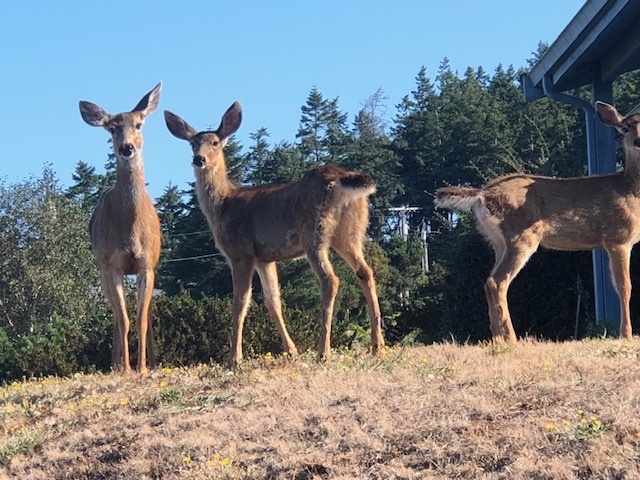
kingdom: Animalia
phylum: Chordata
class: Mammalia
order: Artiodactyla
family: Cervidae
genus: Odocoileus
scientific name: Odocoileus hemionus
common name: Mule deer
